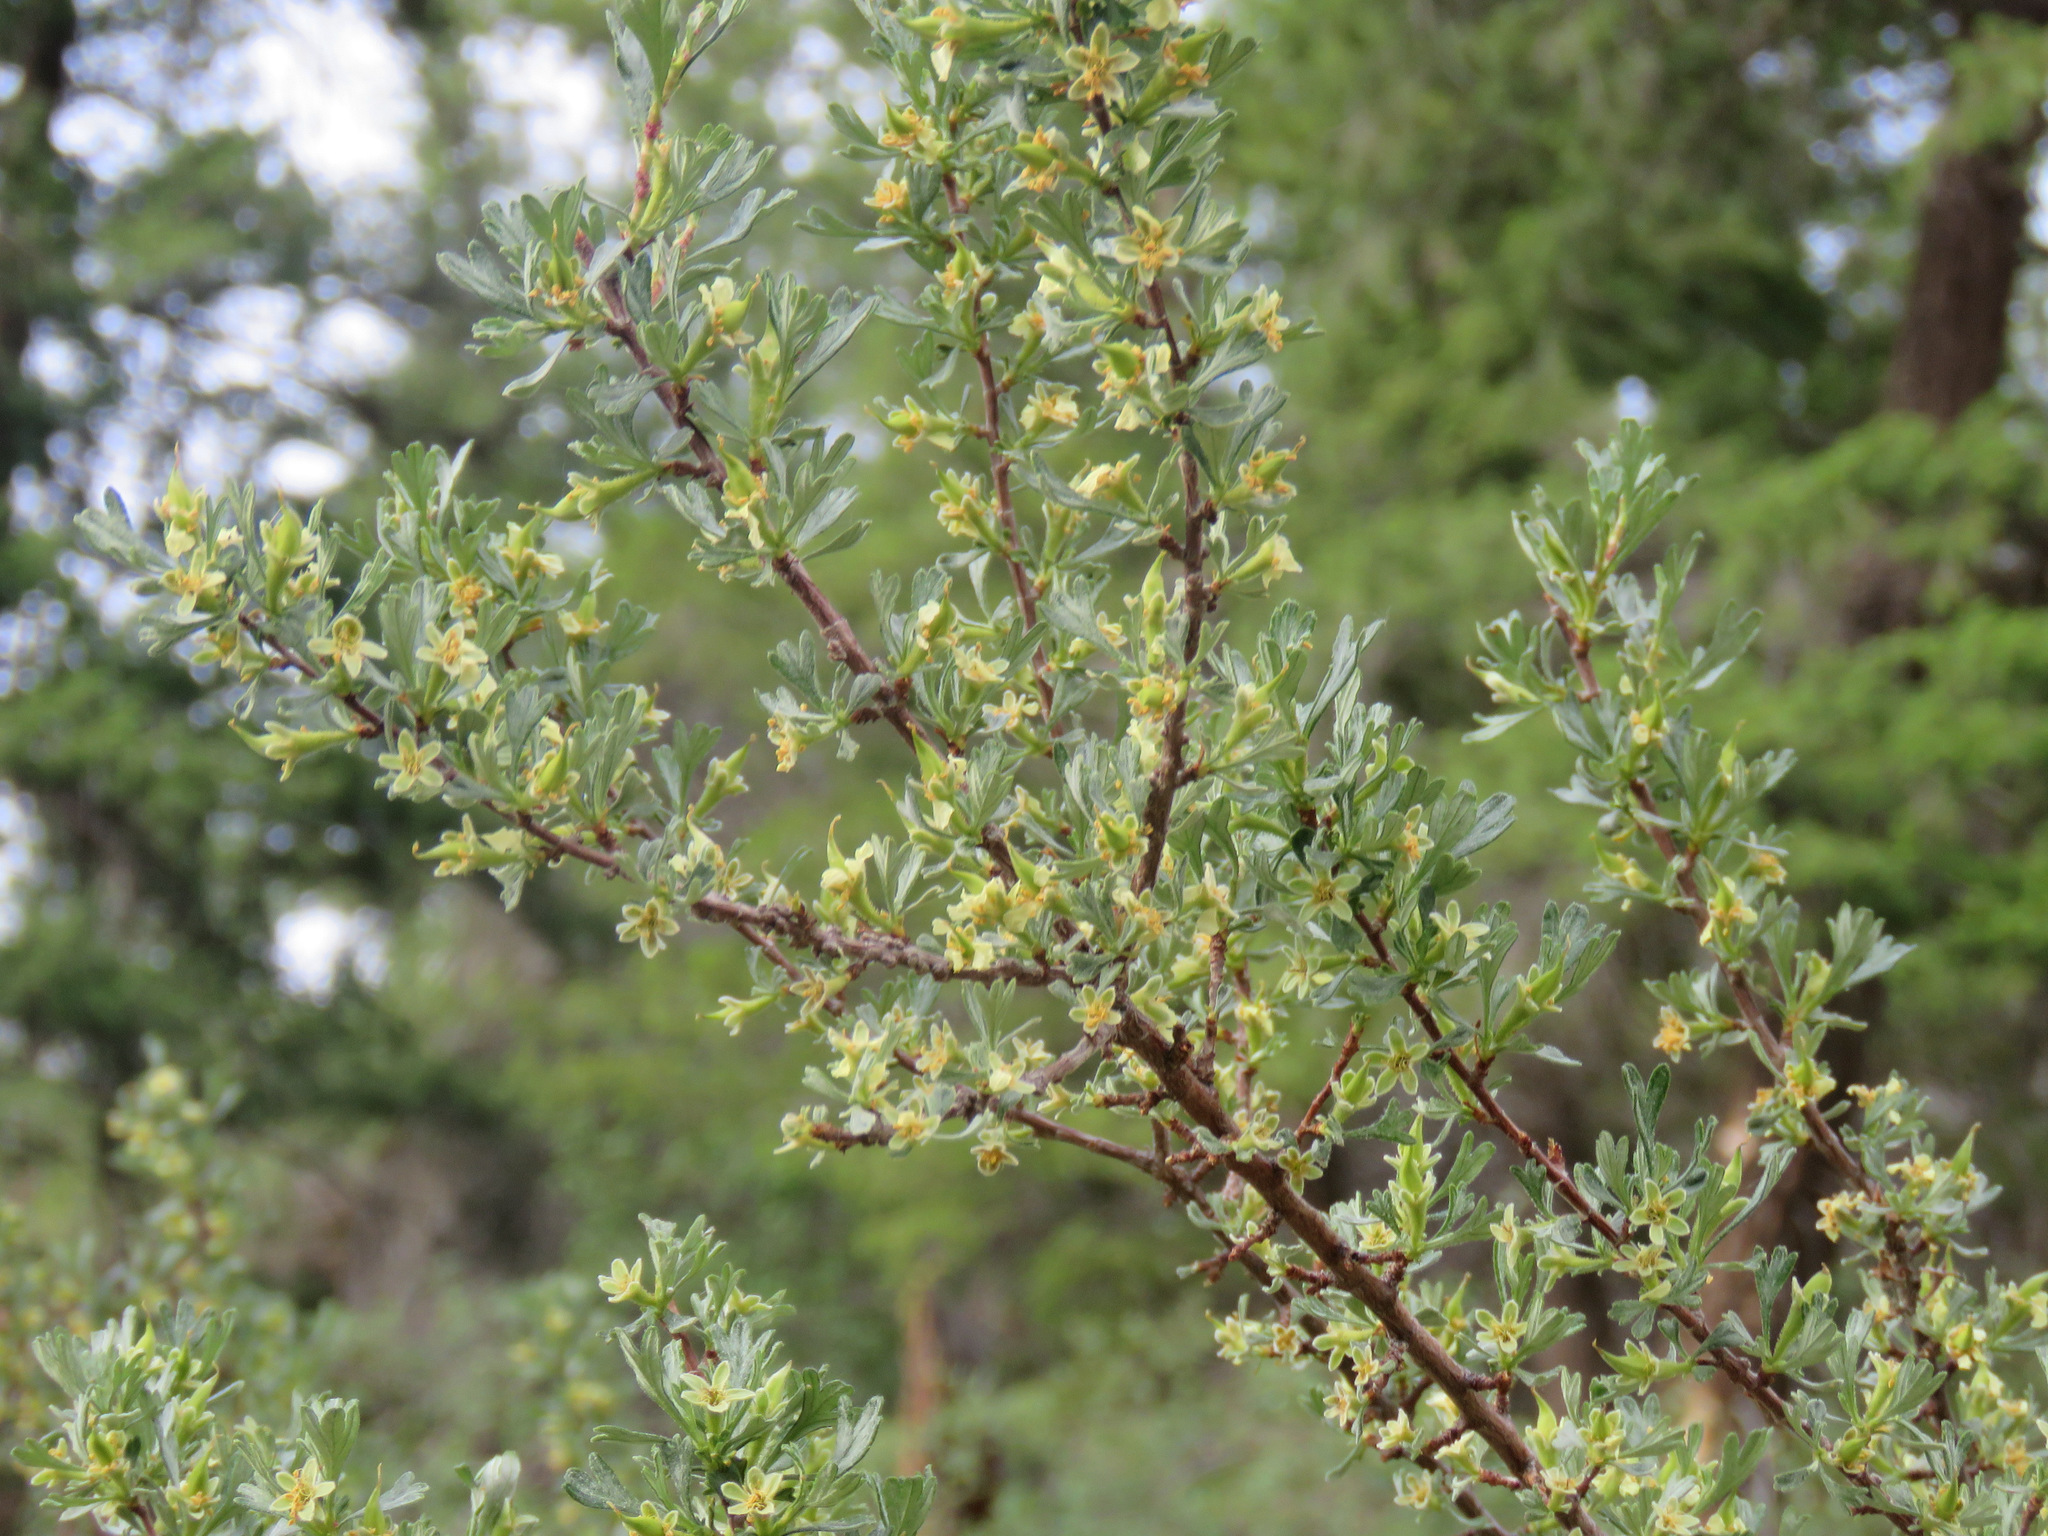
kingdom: Plantae
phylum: Tracheophyta
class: Magnoliopsida
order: Rosales
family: Rosaceae
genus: Purshia
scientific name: Purshia tridentata
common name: Antelope bitterbrush
